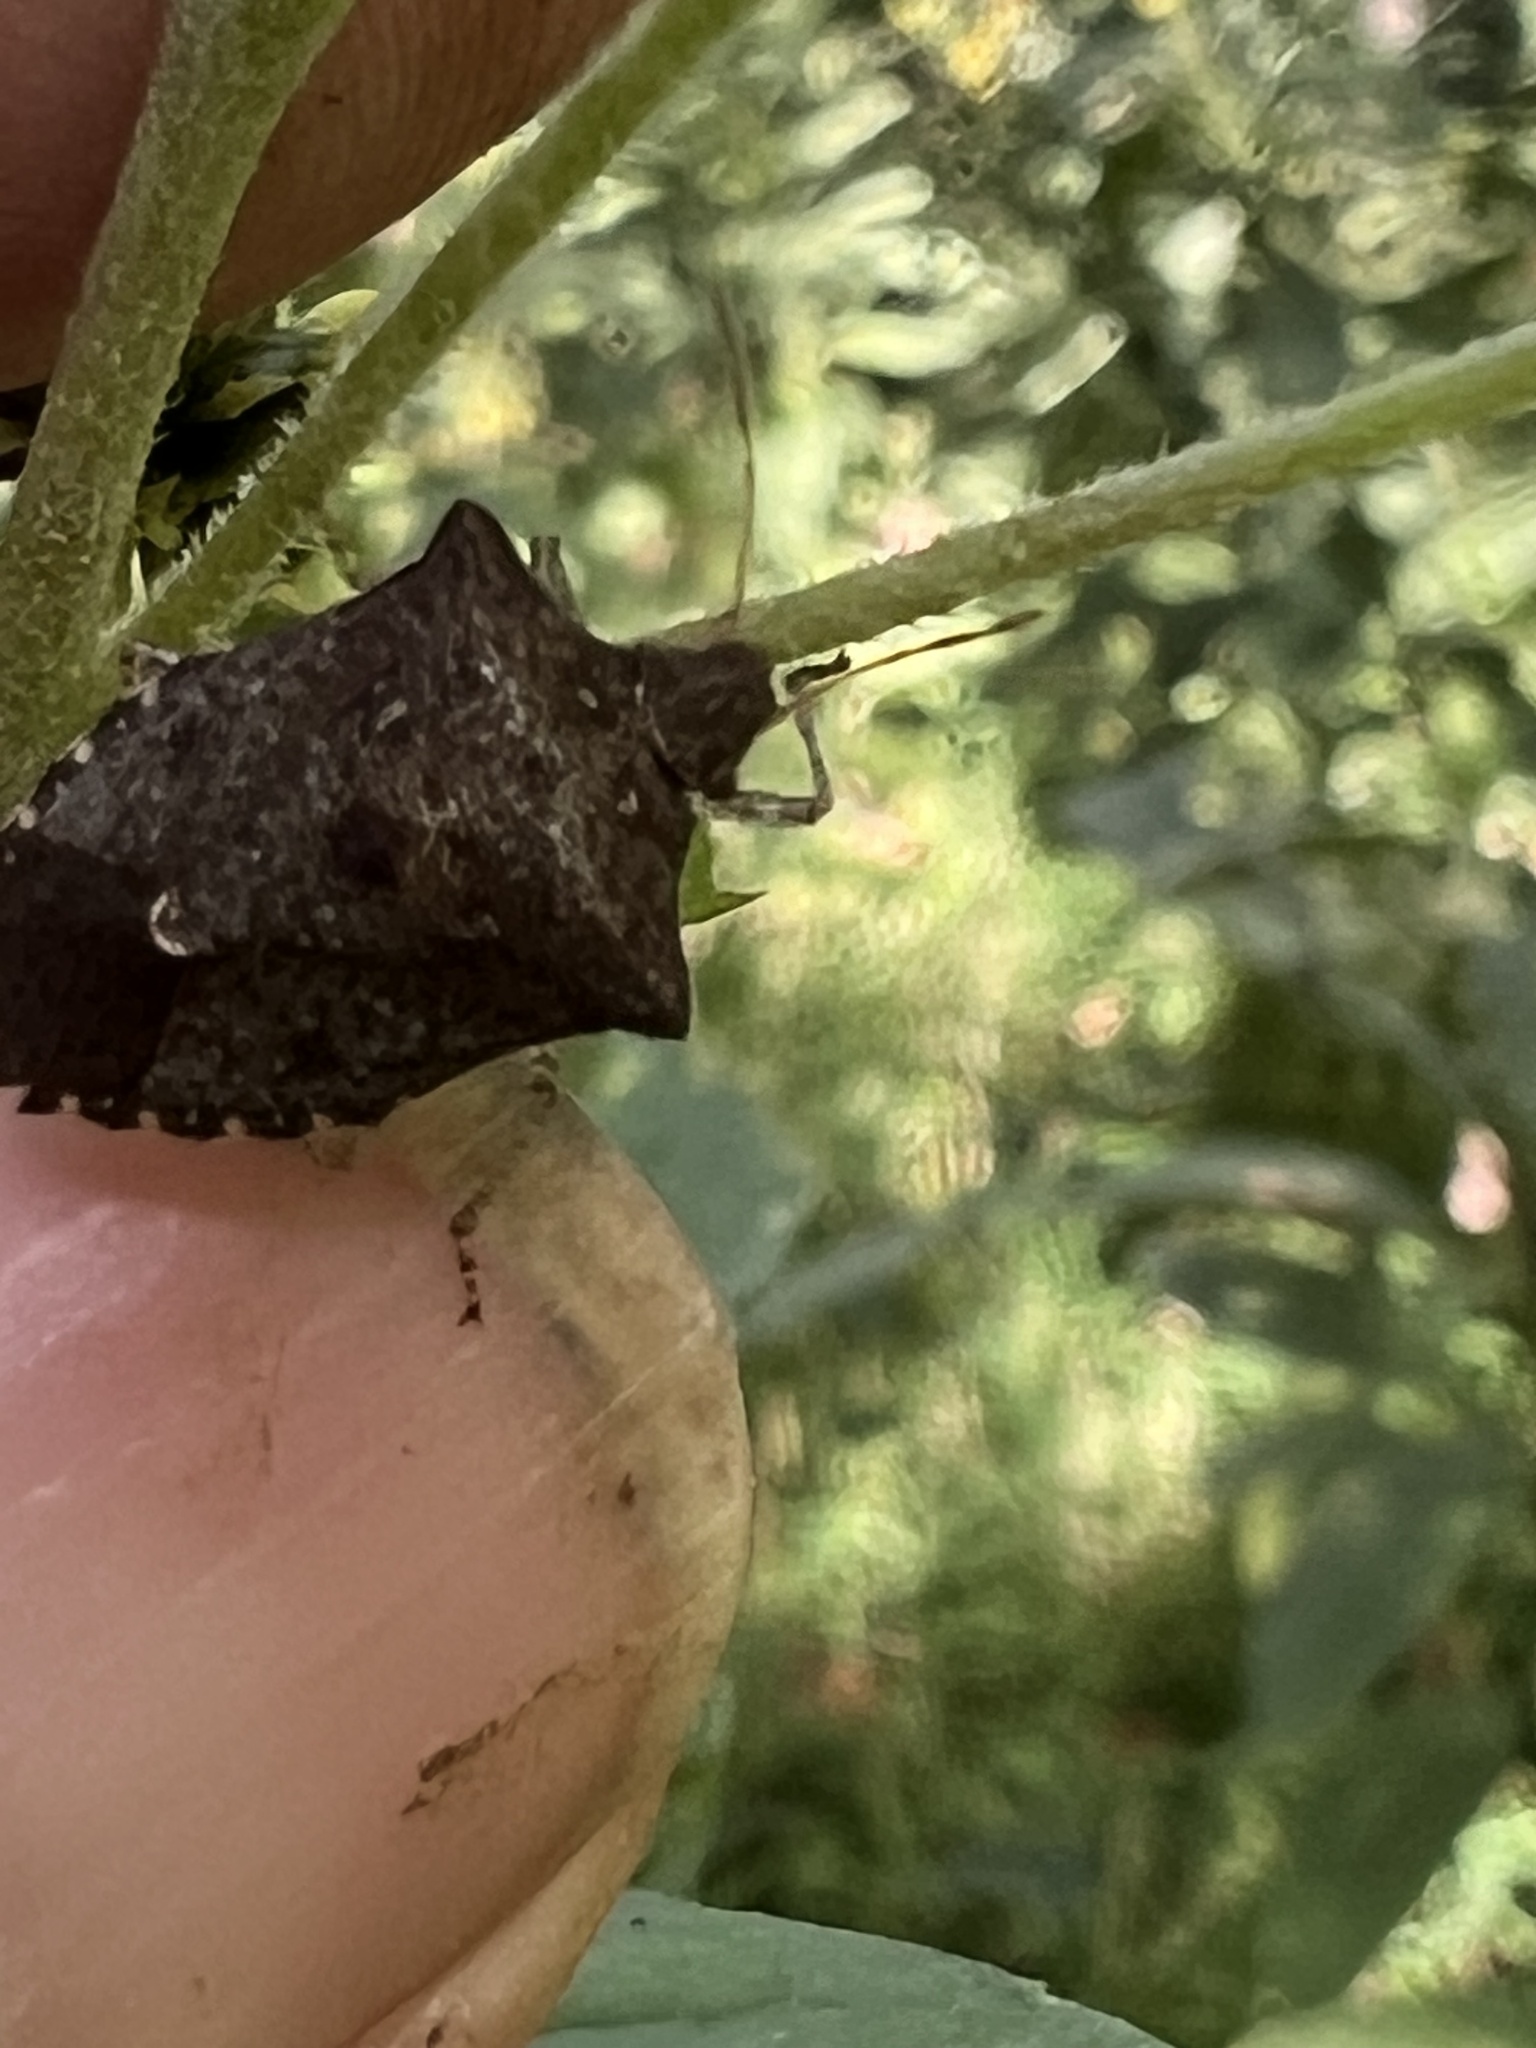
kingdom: Animalia
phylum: Arthropoda
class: Insecta
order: Hemiptera
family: Pentatomidae
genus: Euschistus
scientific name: Euschistus tristigmus
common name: Dusky stink bug
